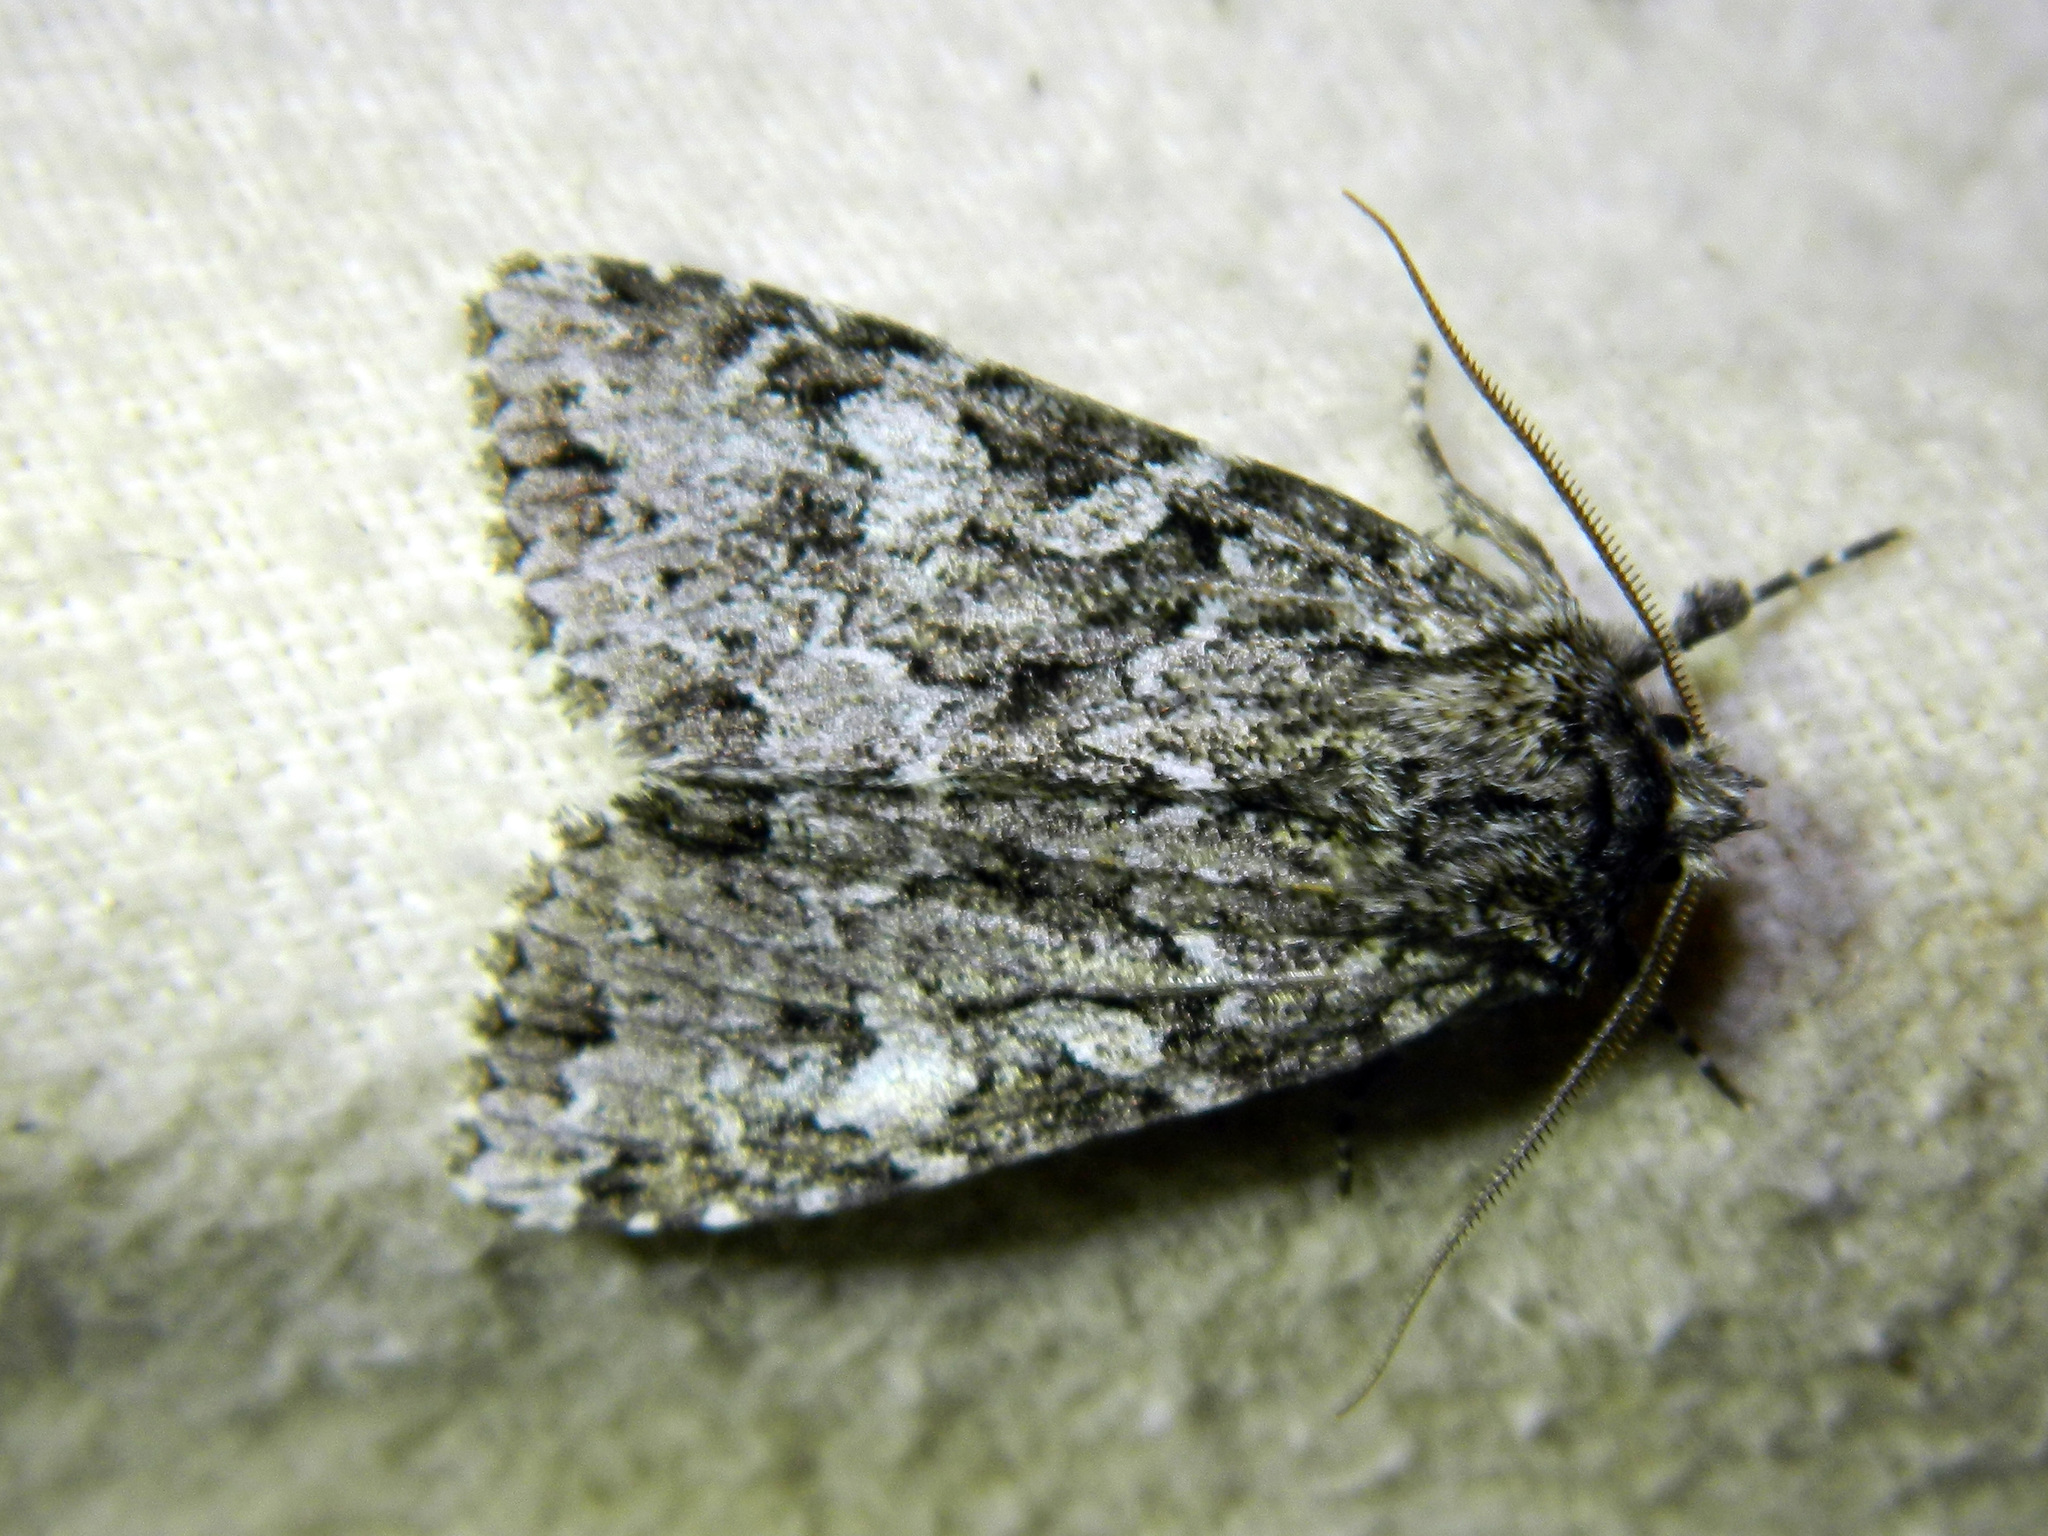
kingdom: Animalia
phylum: Arthropoda
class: Insecta
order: Lepidoptera
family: Noctuidae
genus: Platypolia
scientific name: Platypolia anceps
